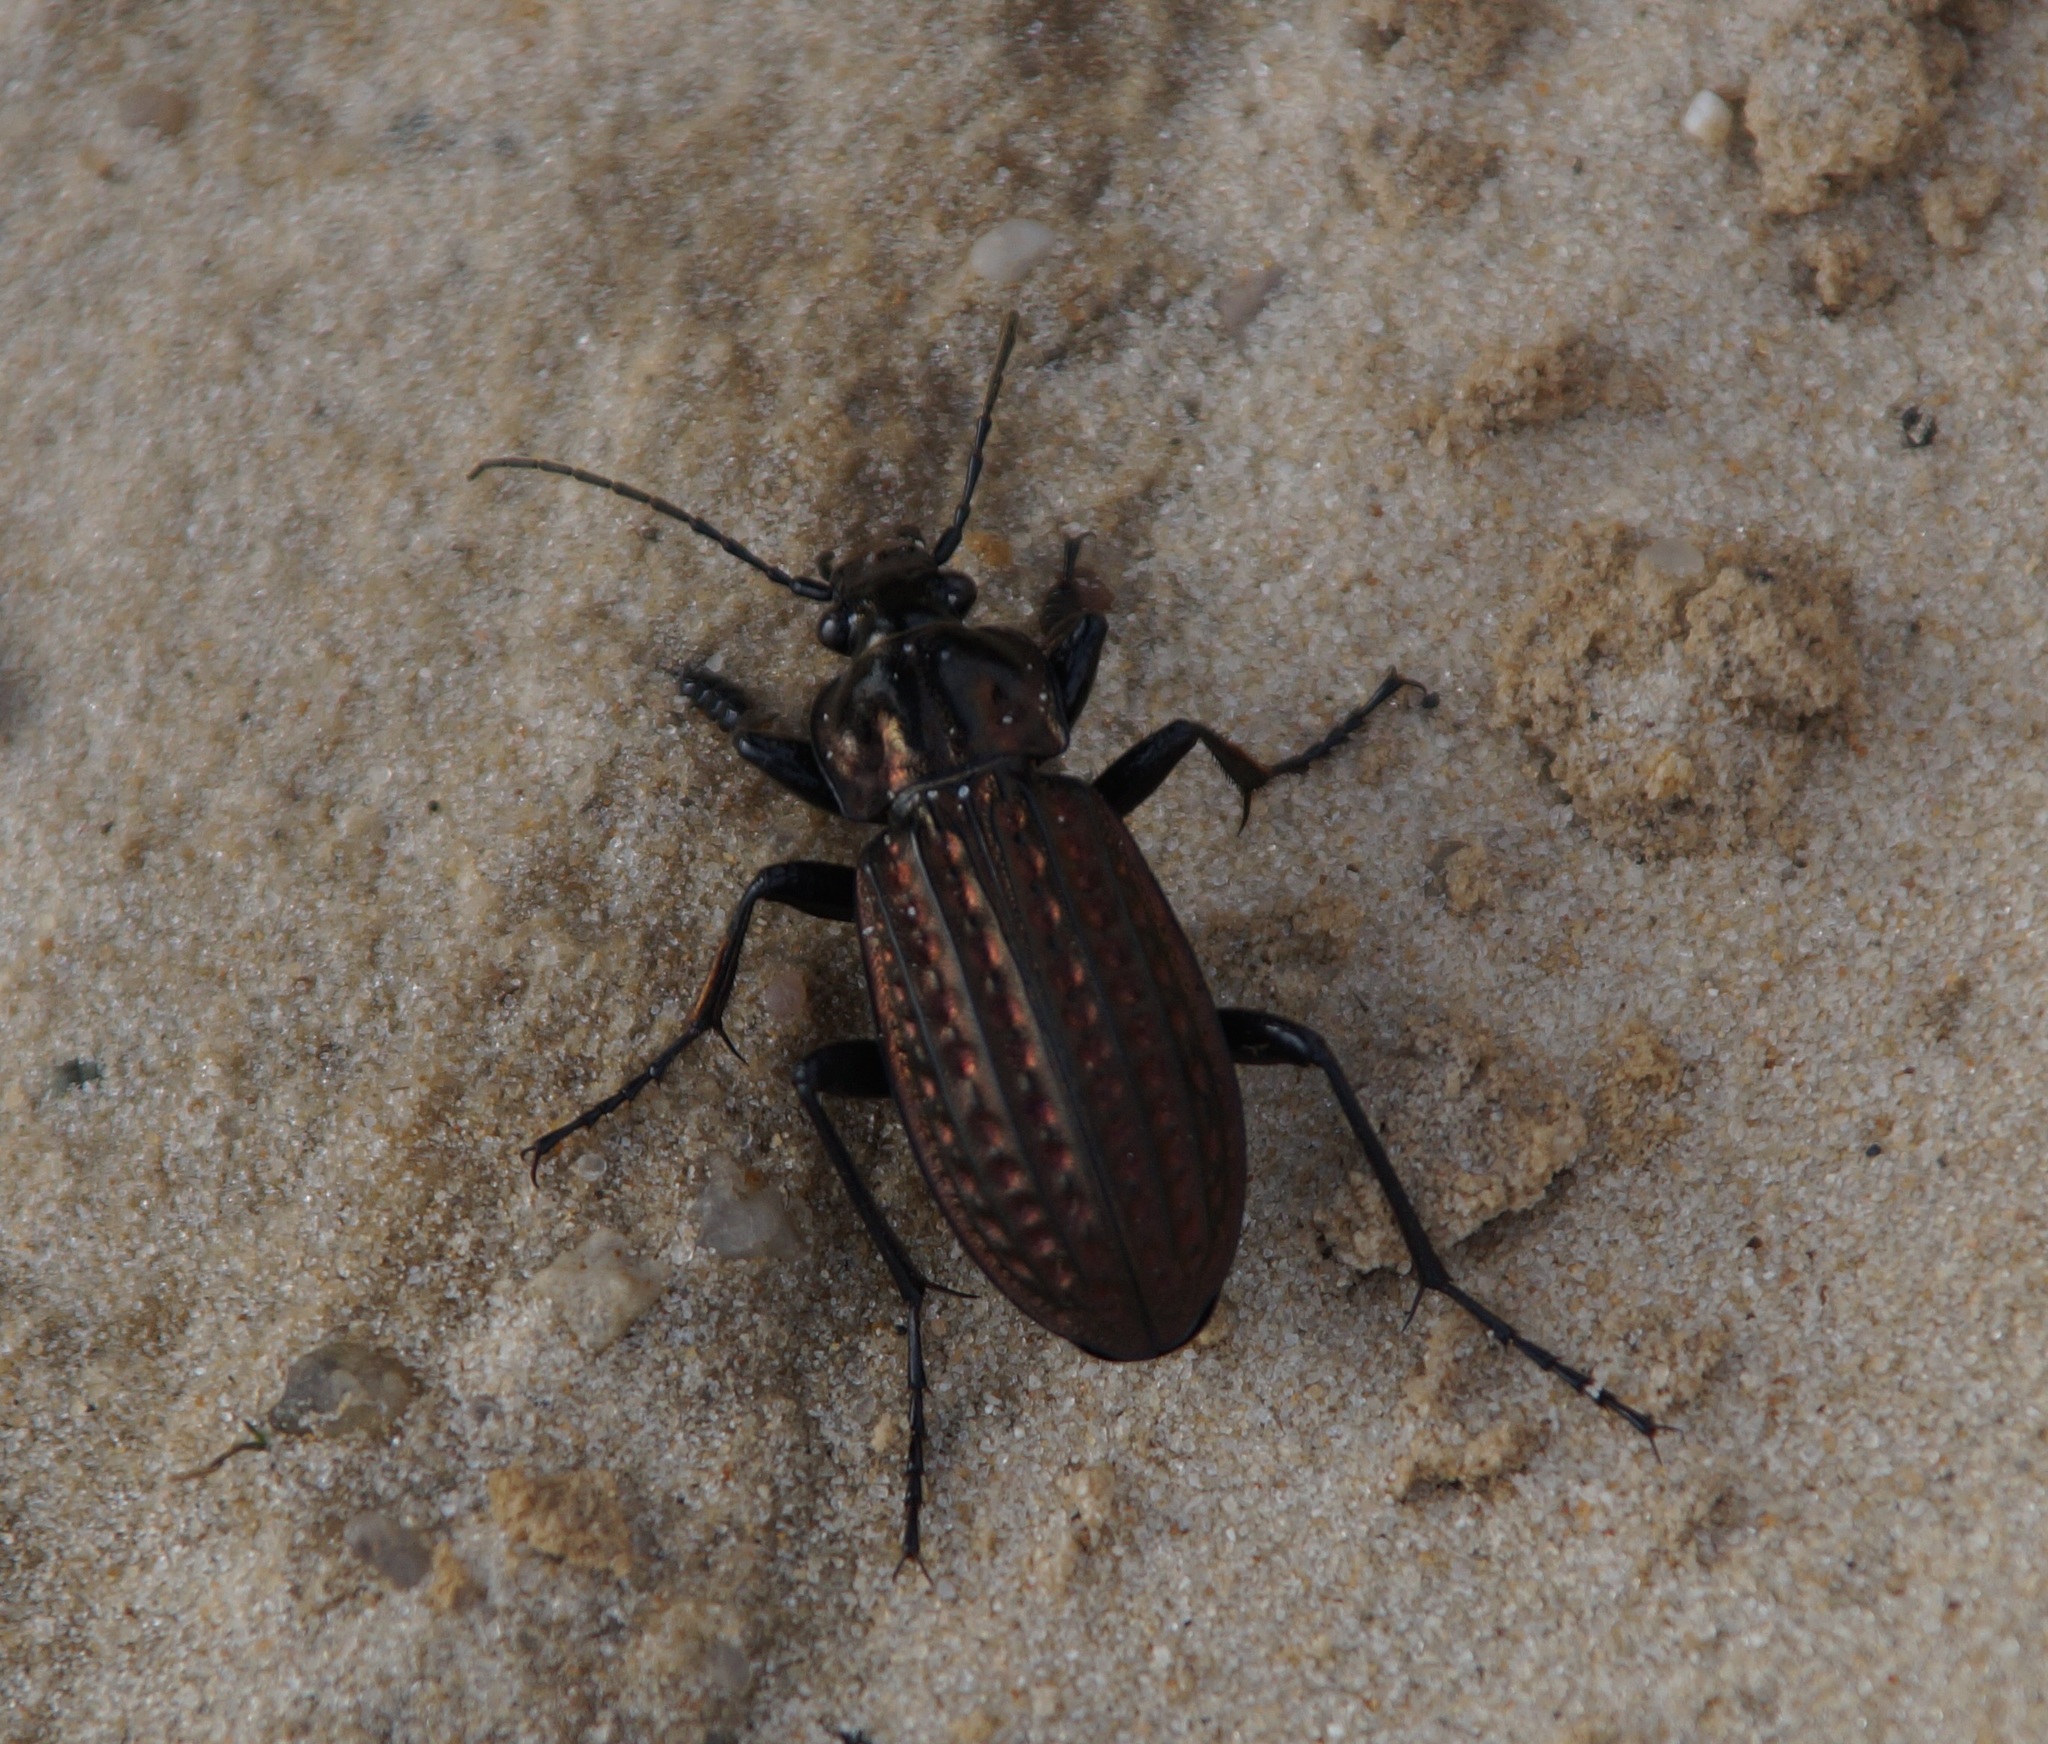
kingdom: Animalia
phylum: Arthropoda
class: Insecta
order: Coleoptera
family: Carabidae
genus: Carabus
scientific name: Carabus clatratus
